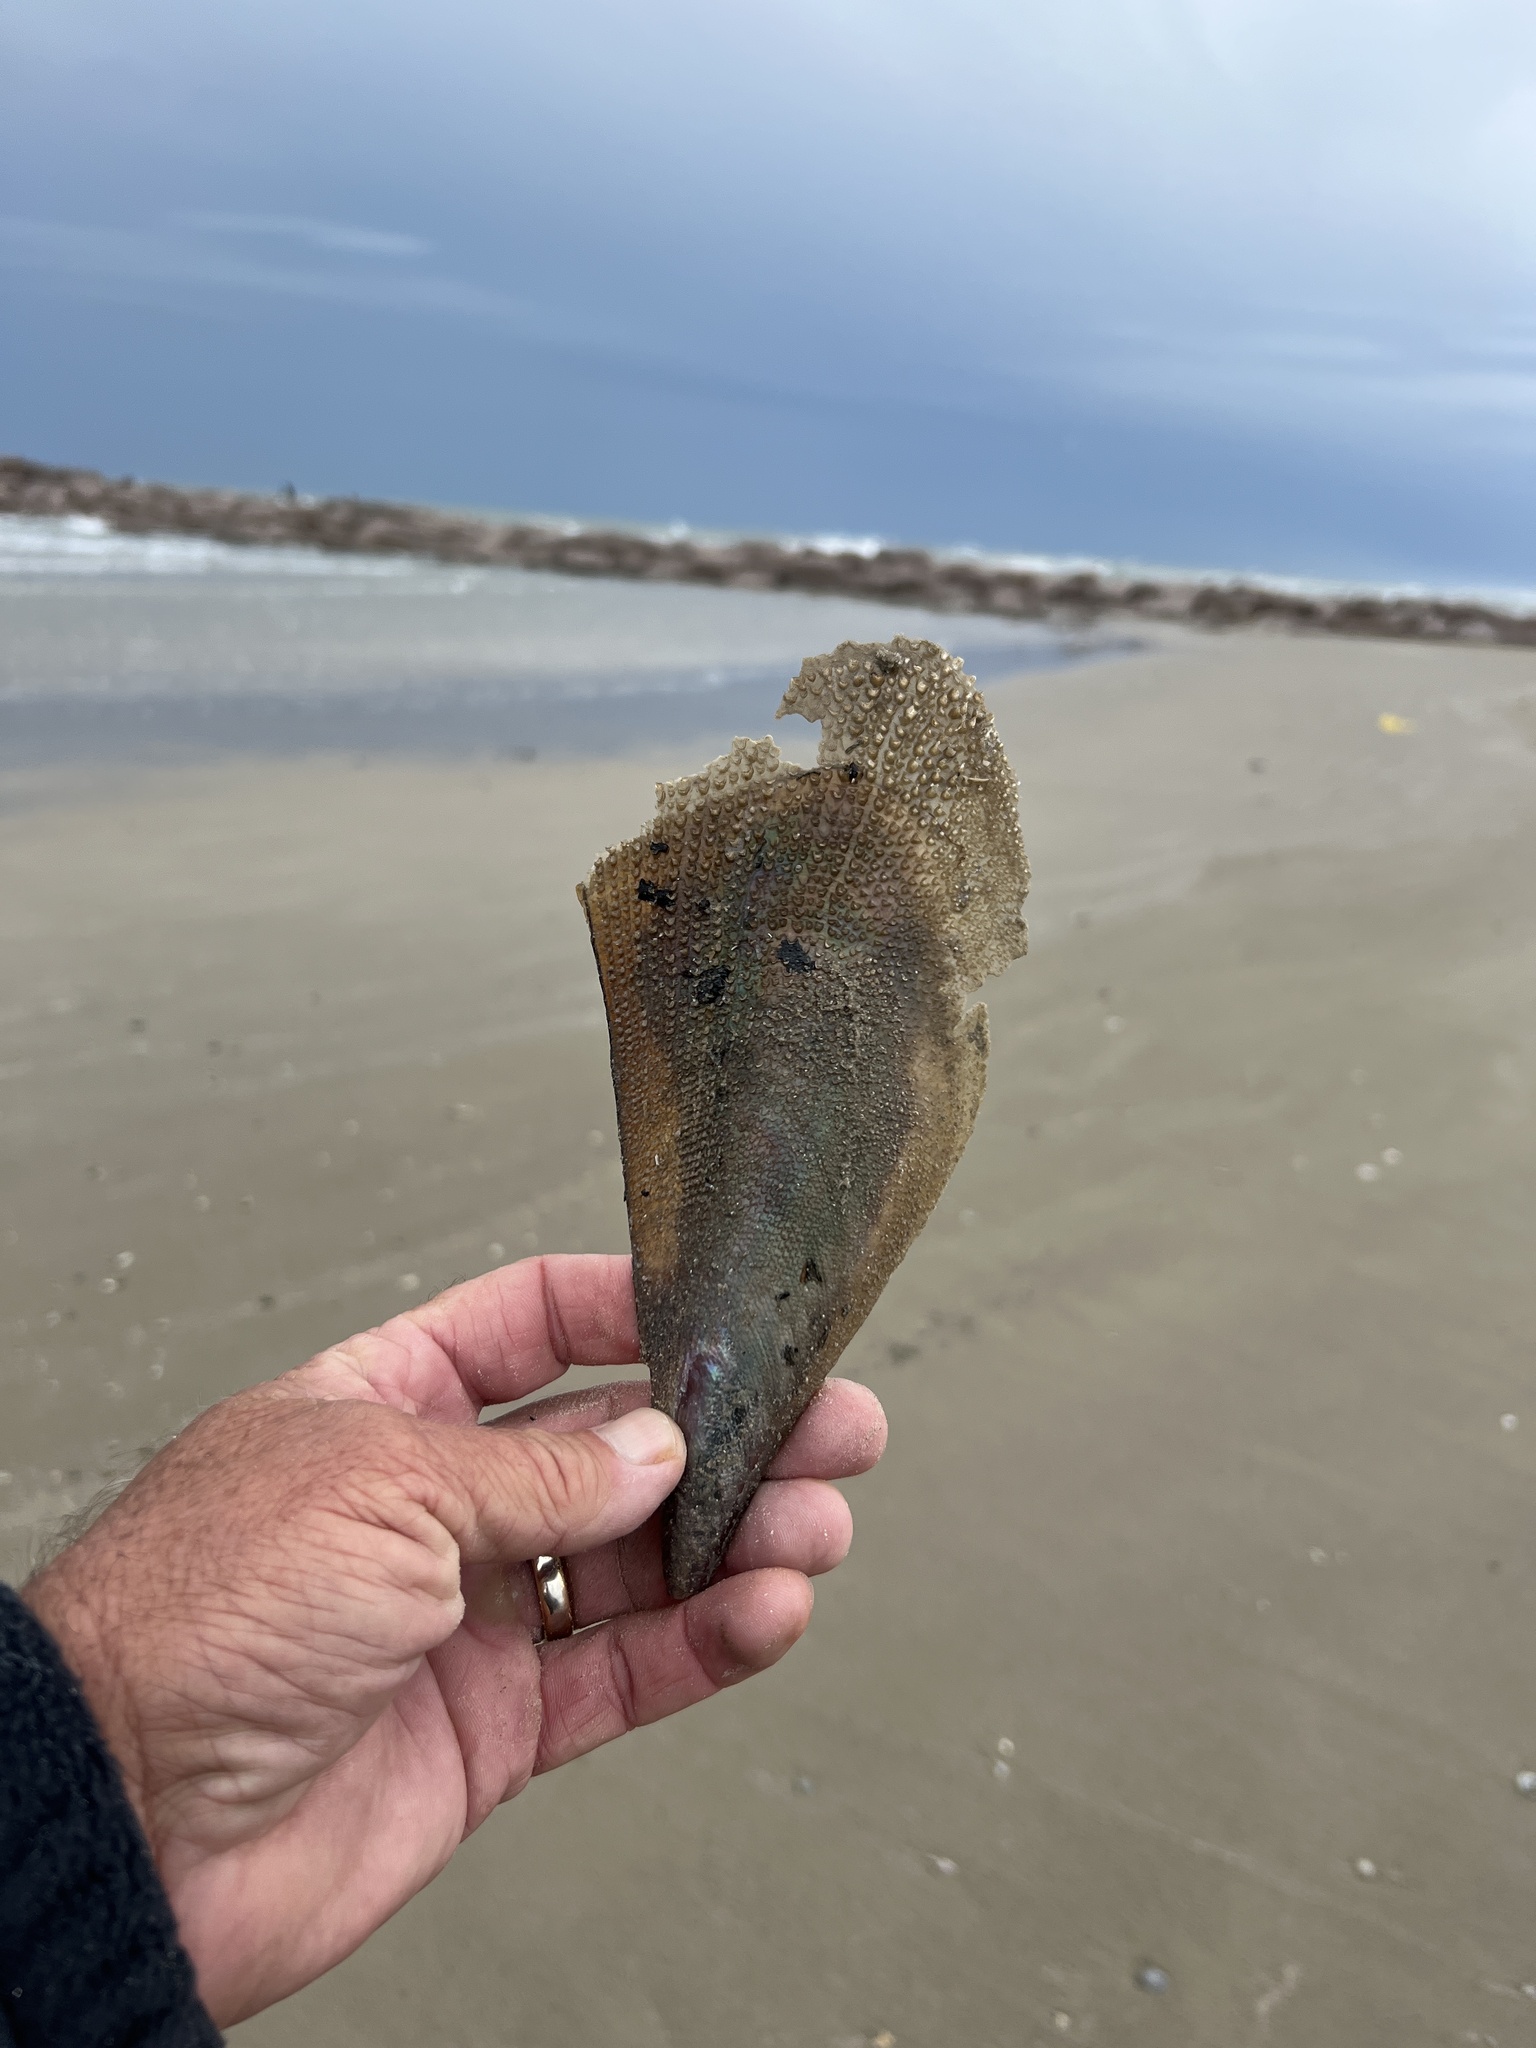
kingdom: Animalia
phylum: Mollusca
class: Bivalvia
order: Ostreida
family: Pinnidae
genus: Atrina
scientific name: Atrina serrata
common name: Saw-toothed penshell
